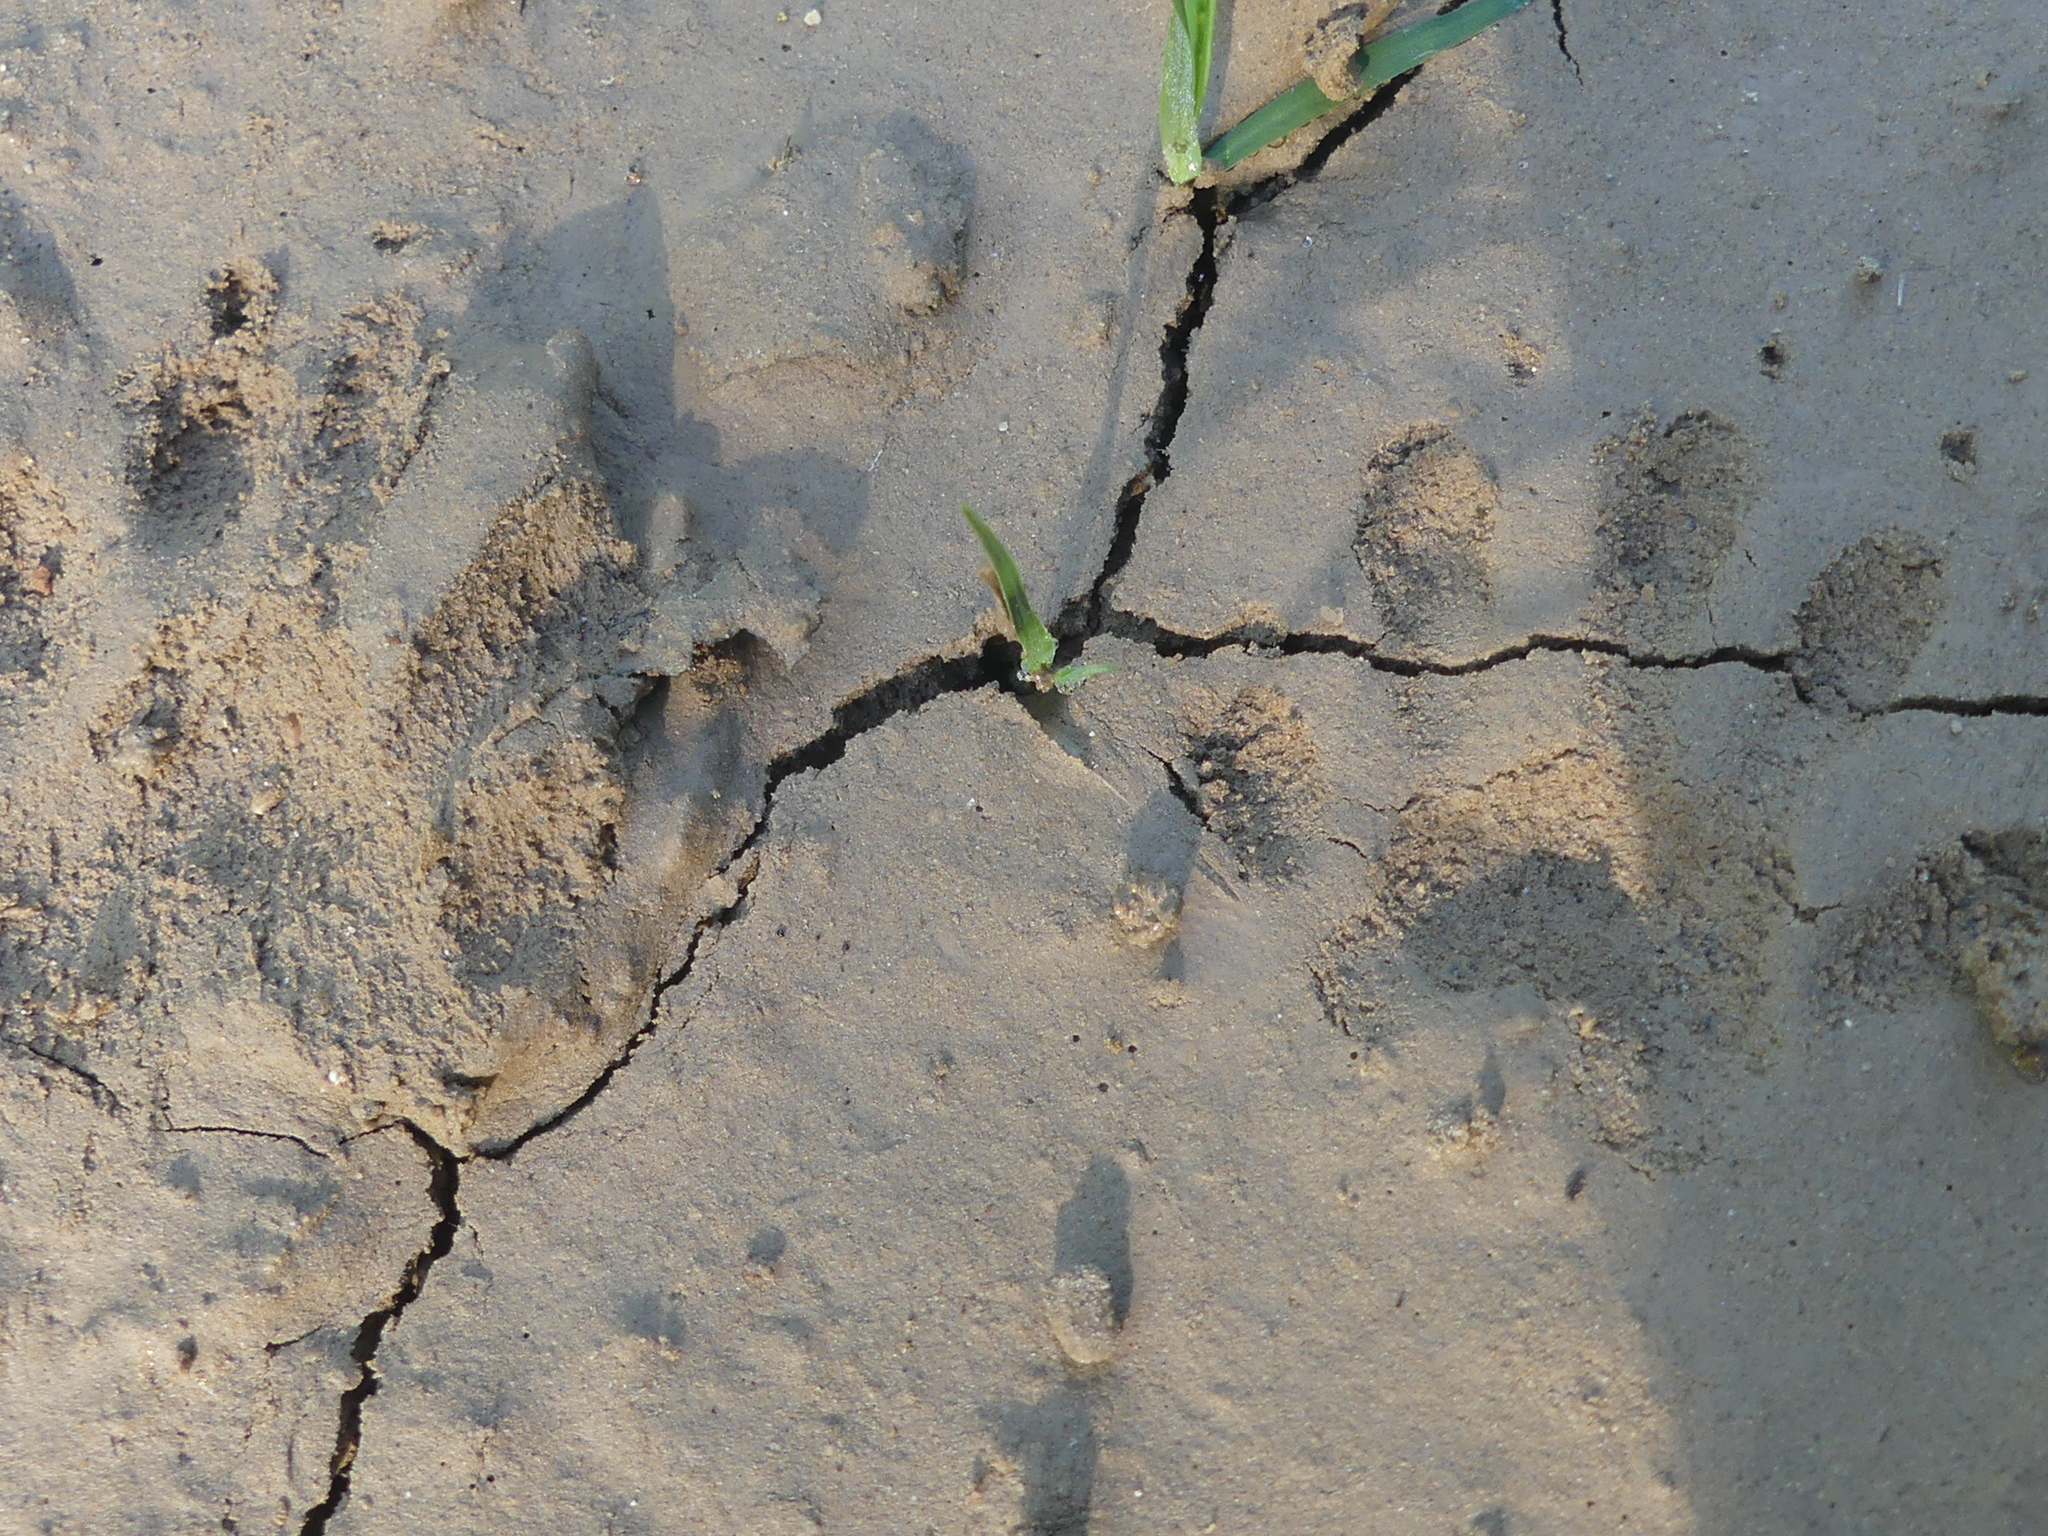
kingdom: Animalia
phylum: Chordata
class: Mammalia
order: Carnivora
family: Procyonidae
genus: Procyon
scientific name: Procyon lotor
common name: Raccoon
